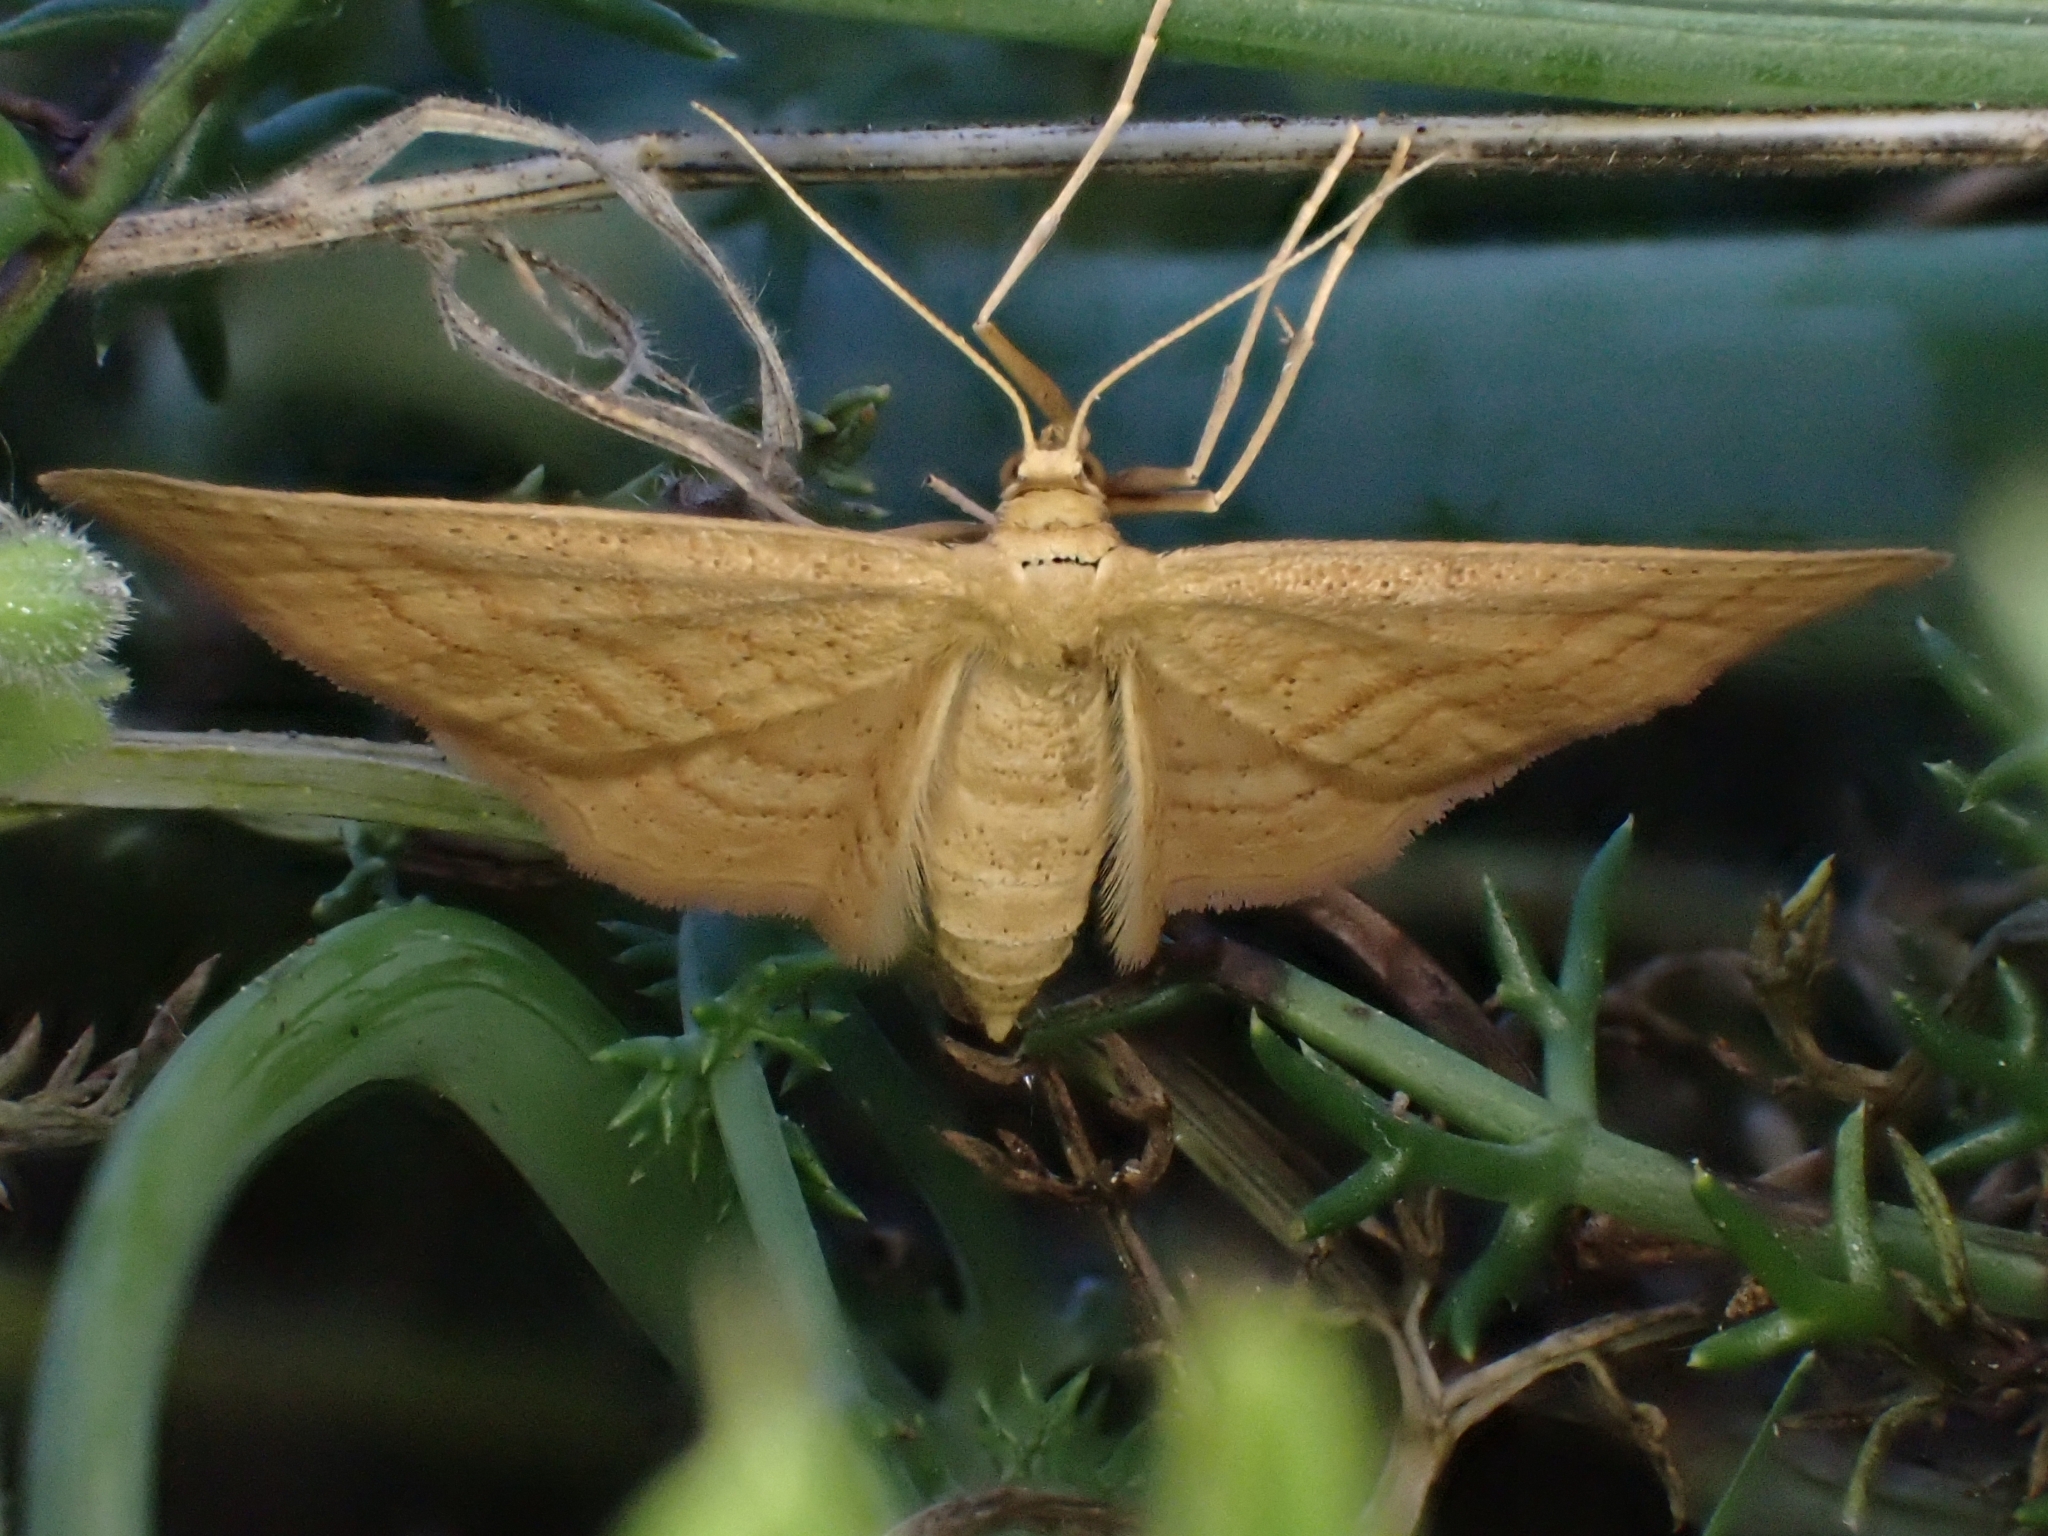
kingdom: Animalia
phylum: Arthropoda
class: Insecta
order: Lepidoptera
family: Geometridae
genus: Idaea
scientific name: Idaea ochrata
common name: Bright wave
